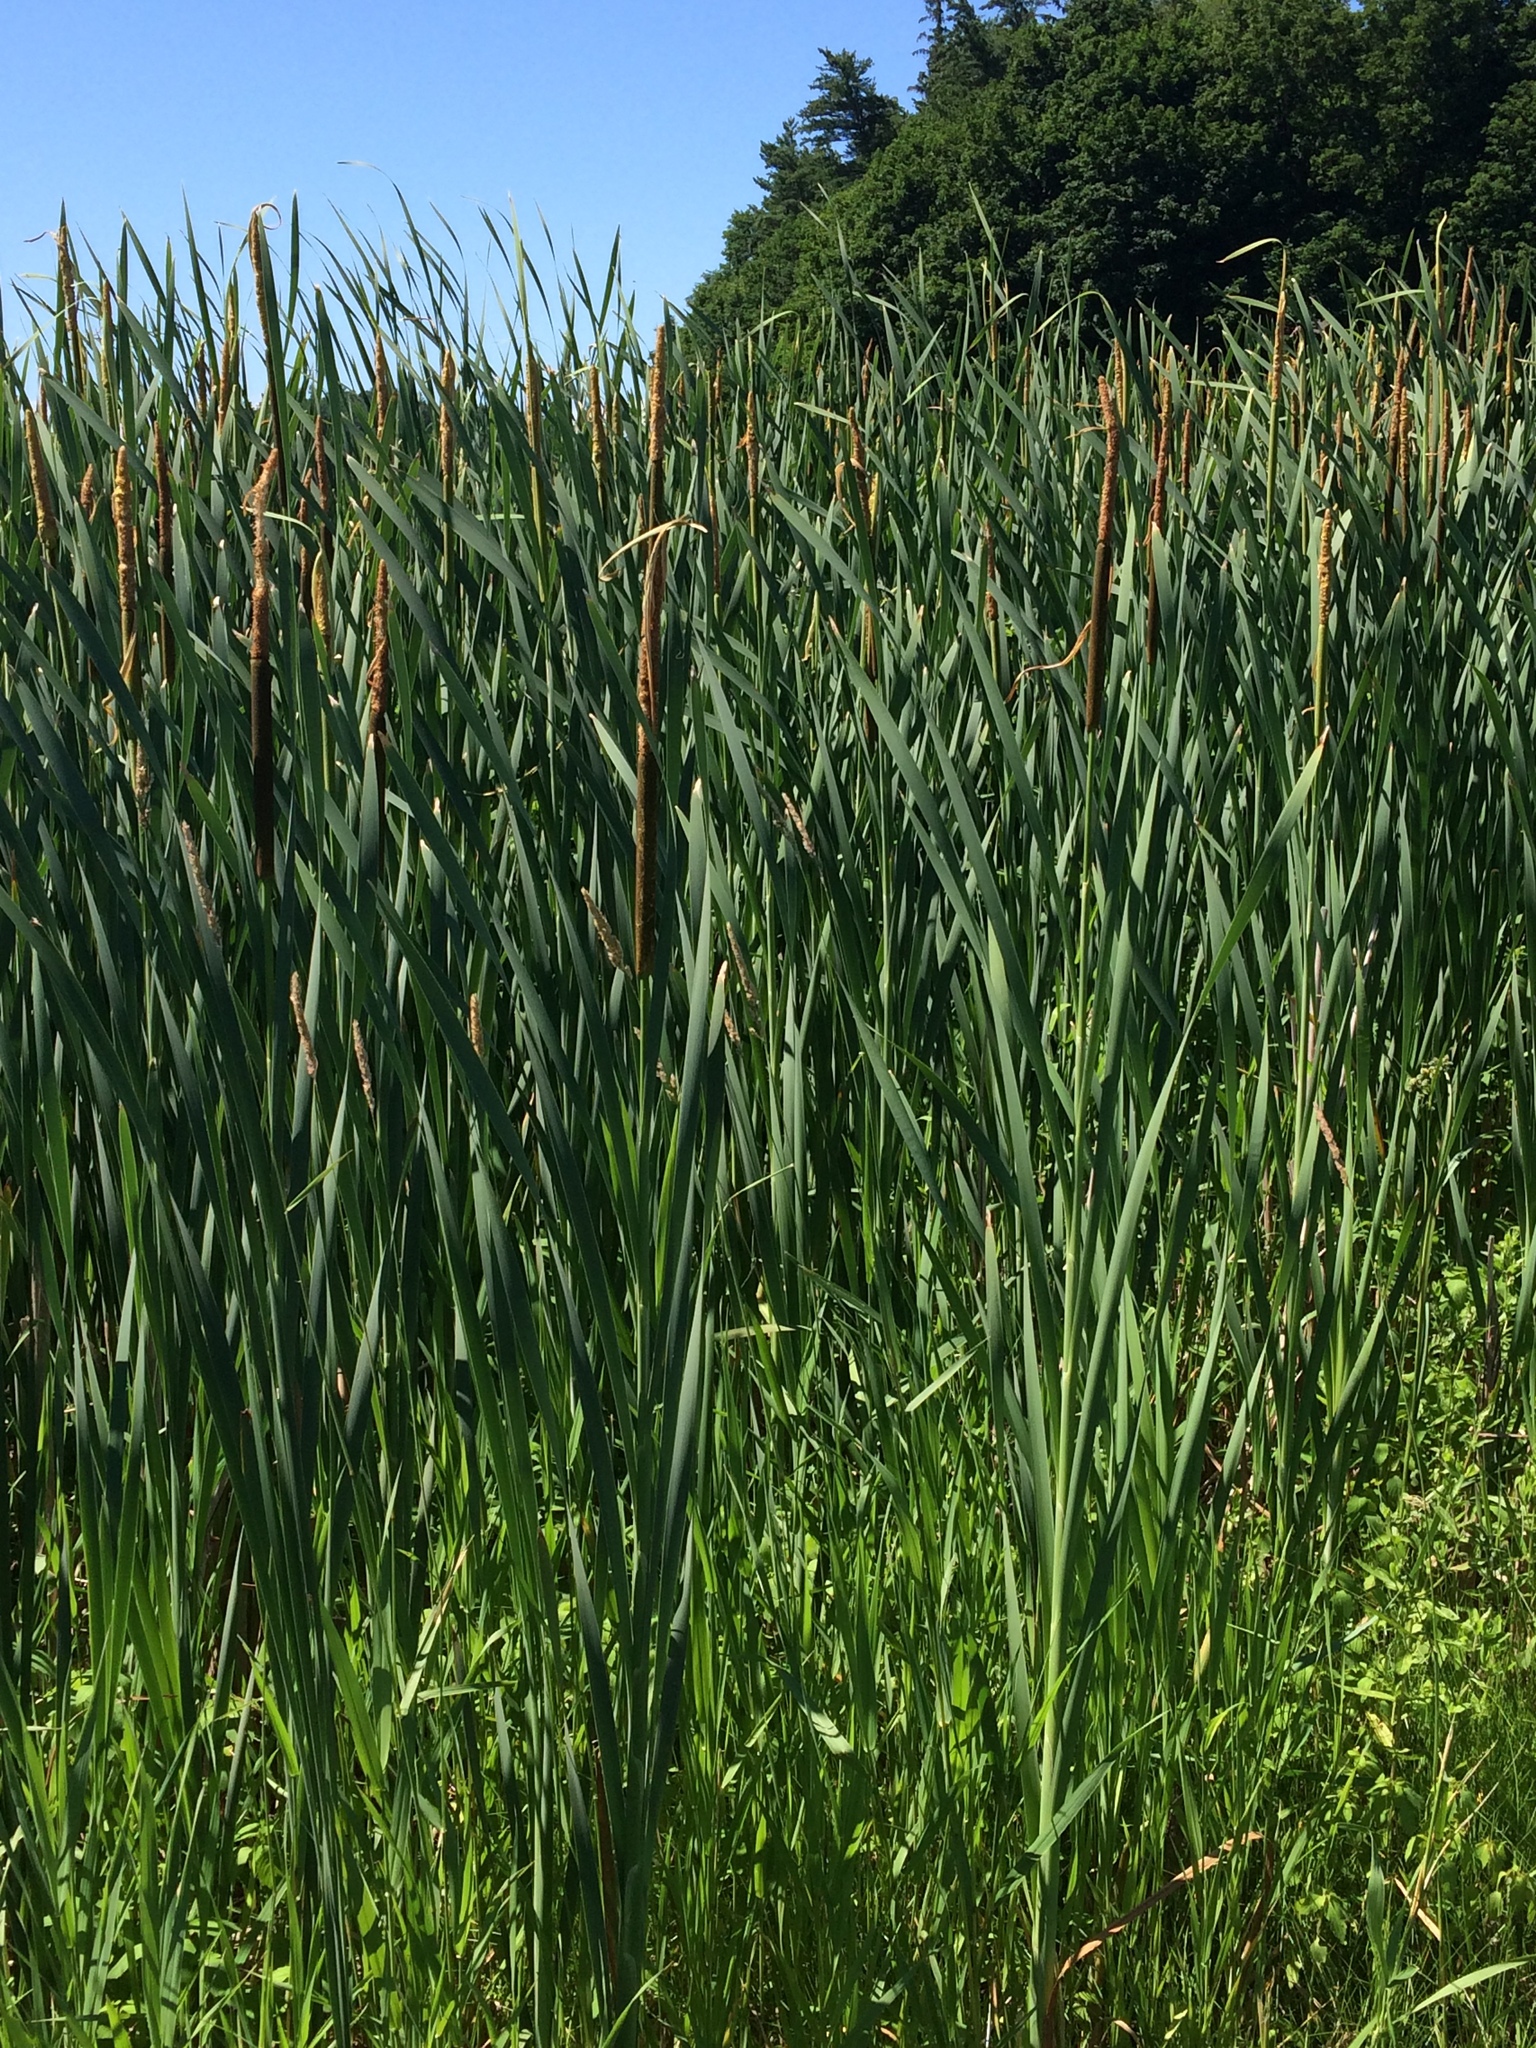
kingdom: Plantae
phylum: Tracheophyta
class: Liliopsida
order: Poales
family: Typhaceae
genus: Typha
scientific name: Typha angustifolia
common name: Lesser bulrush
